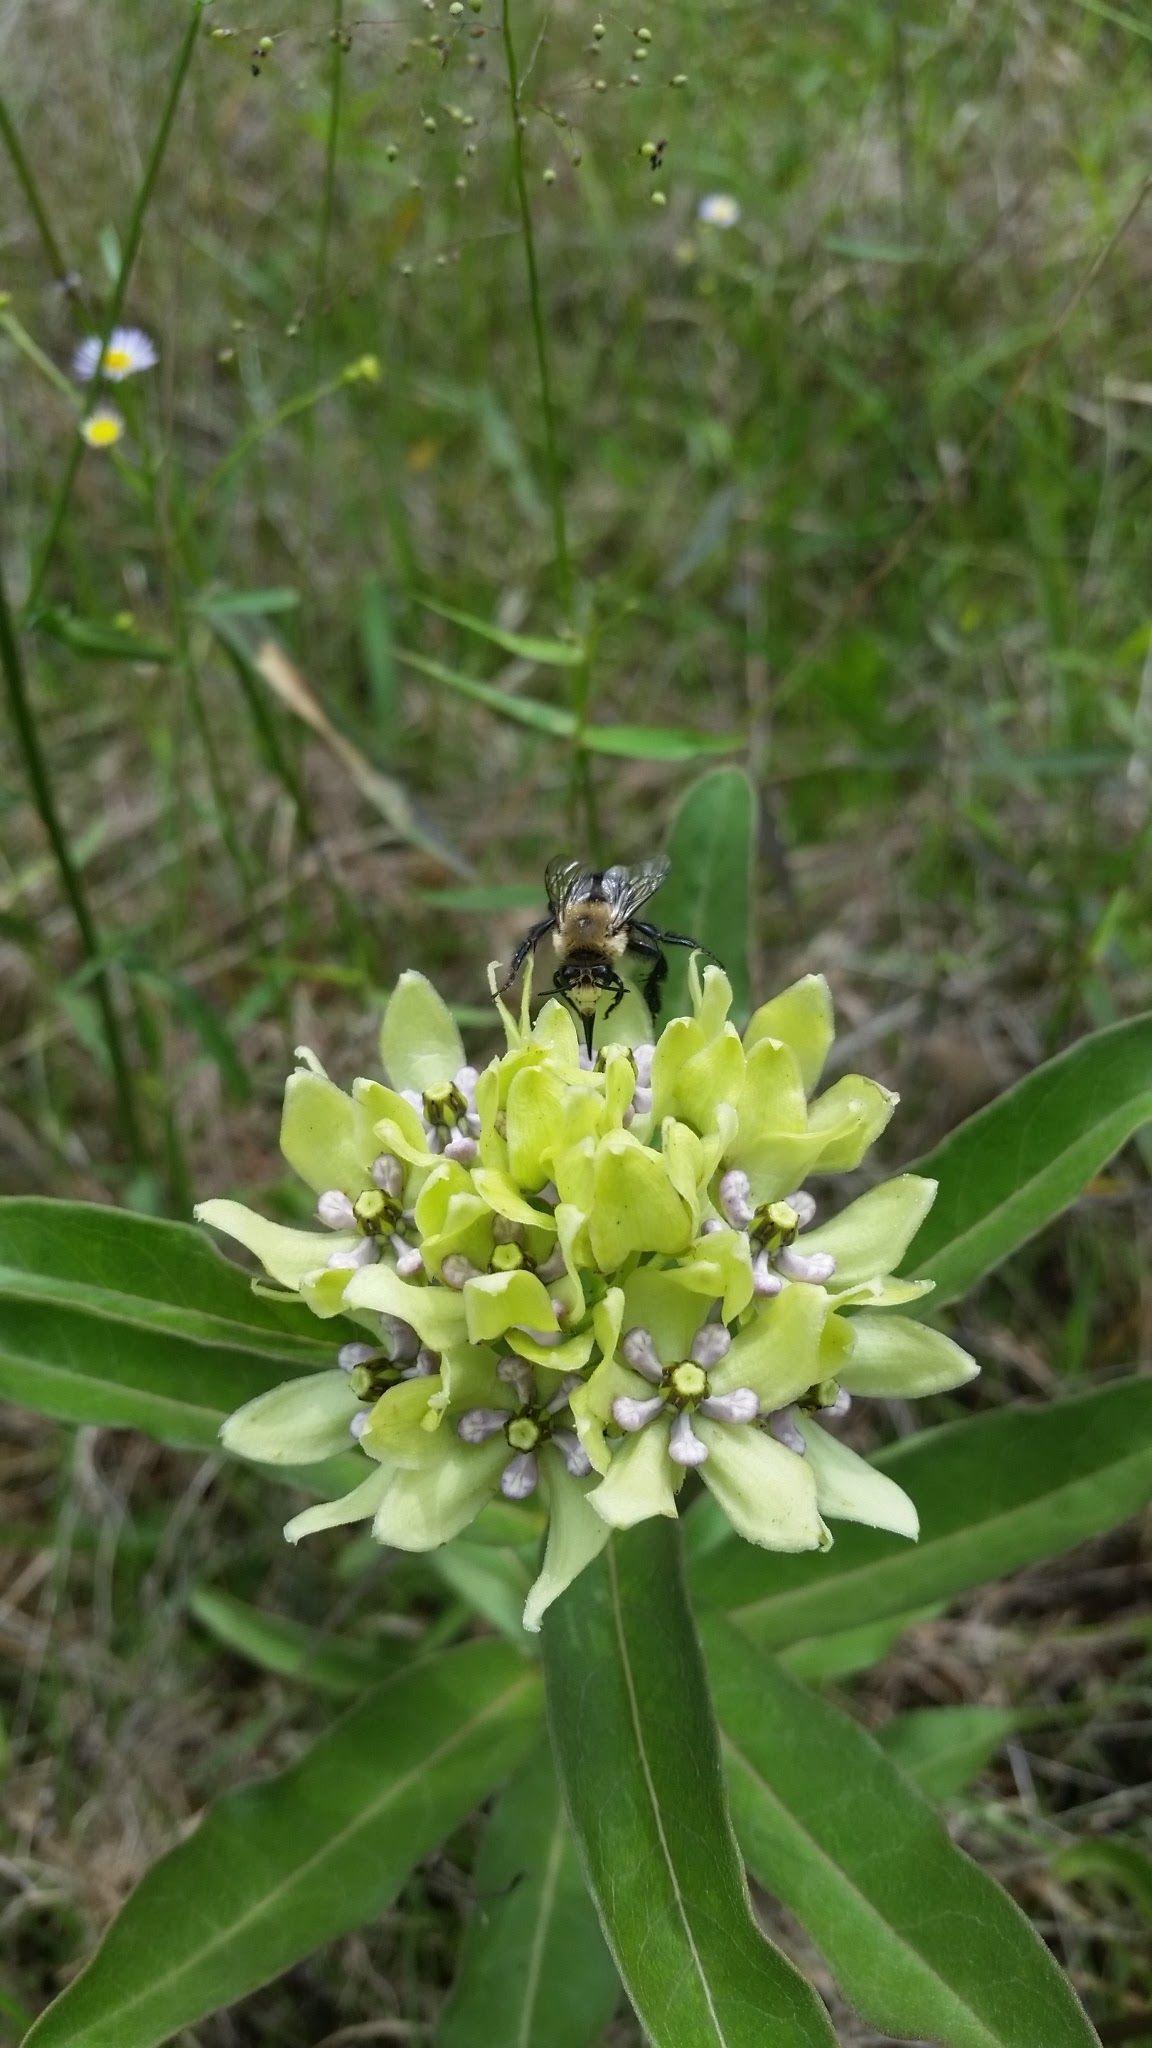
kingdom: Plantae
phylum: Tracheophyta
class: Magnoliopsida
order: Gentianales
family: Apocynaceae
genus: Asclepias
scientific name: Asclepias viridis
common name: Antelope-horns
